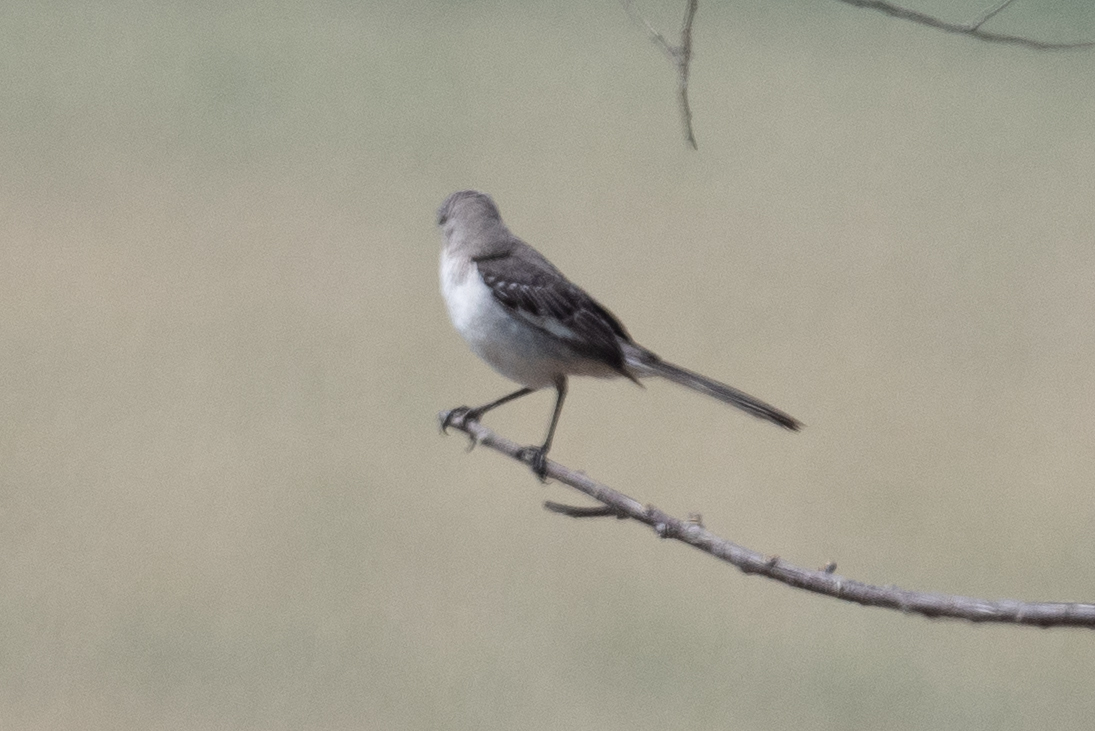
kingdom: Animalia
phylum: Chordata
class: Aves
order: Passeriformes
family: Mimidae
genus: Mimus
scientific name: Mimus polyglottos
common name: Northern mockingbird
